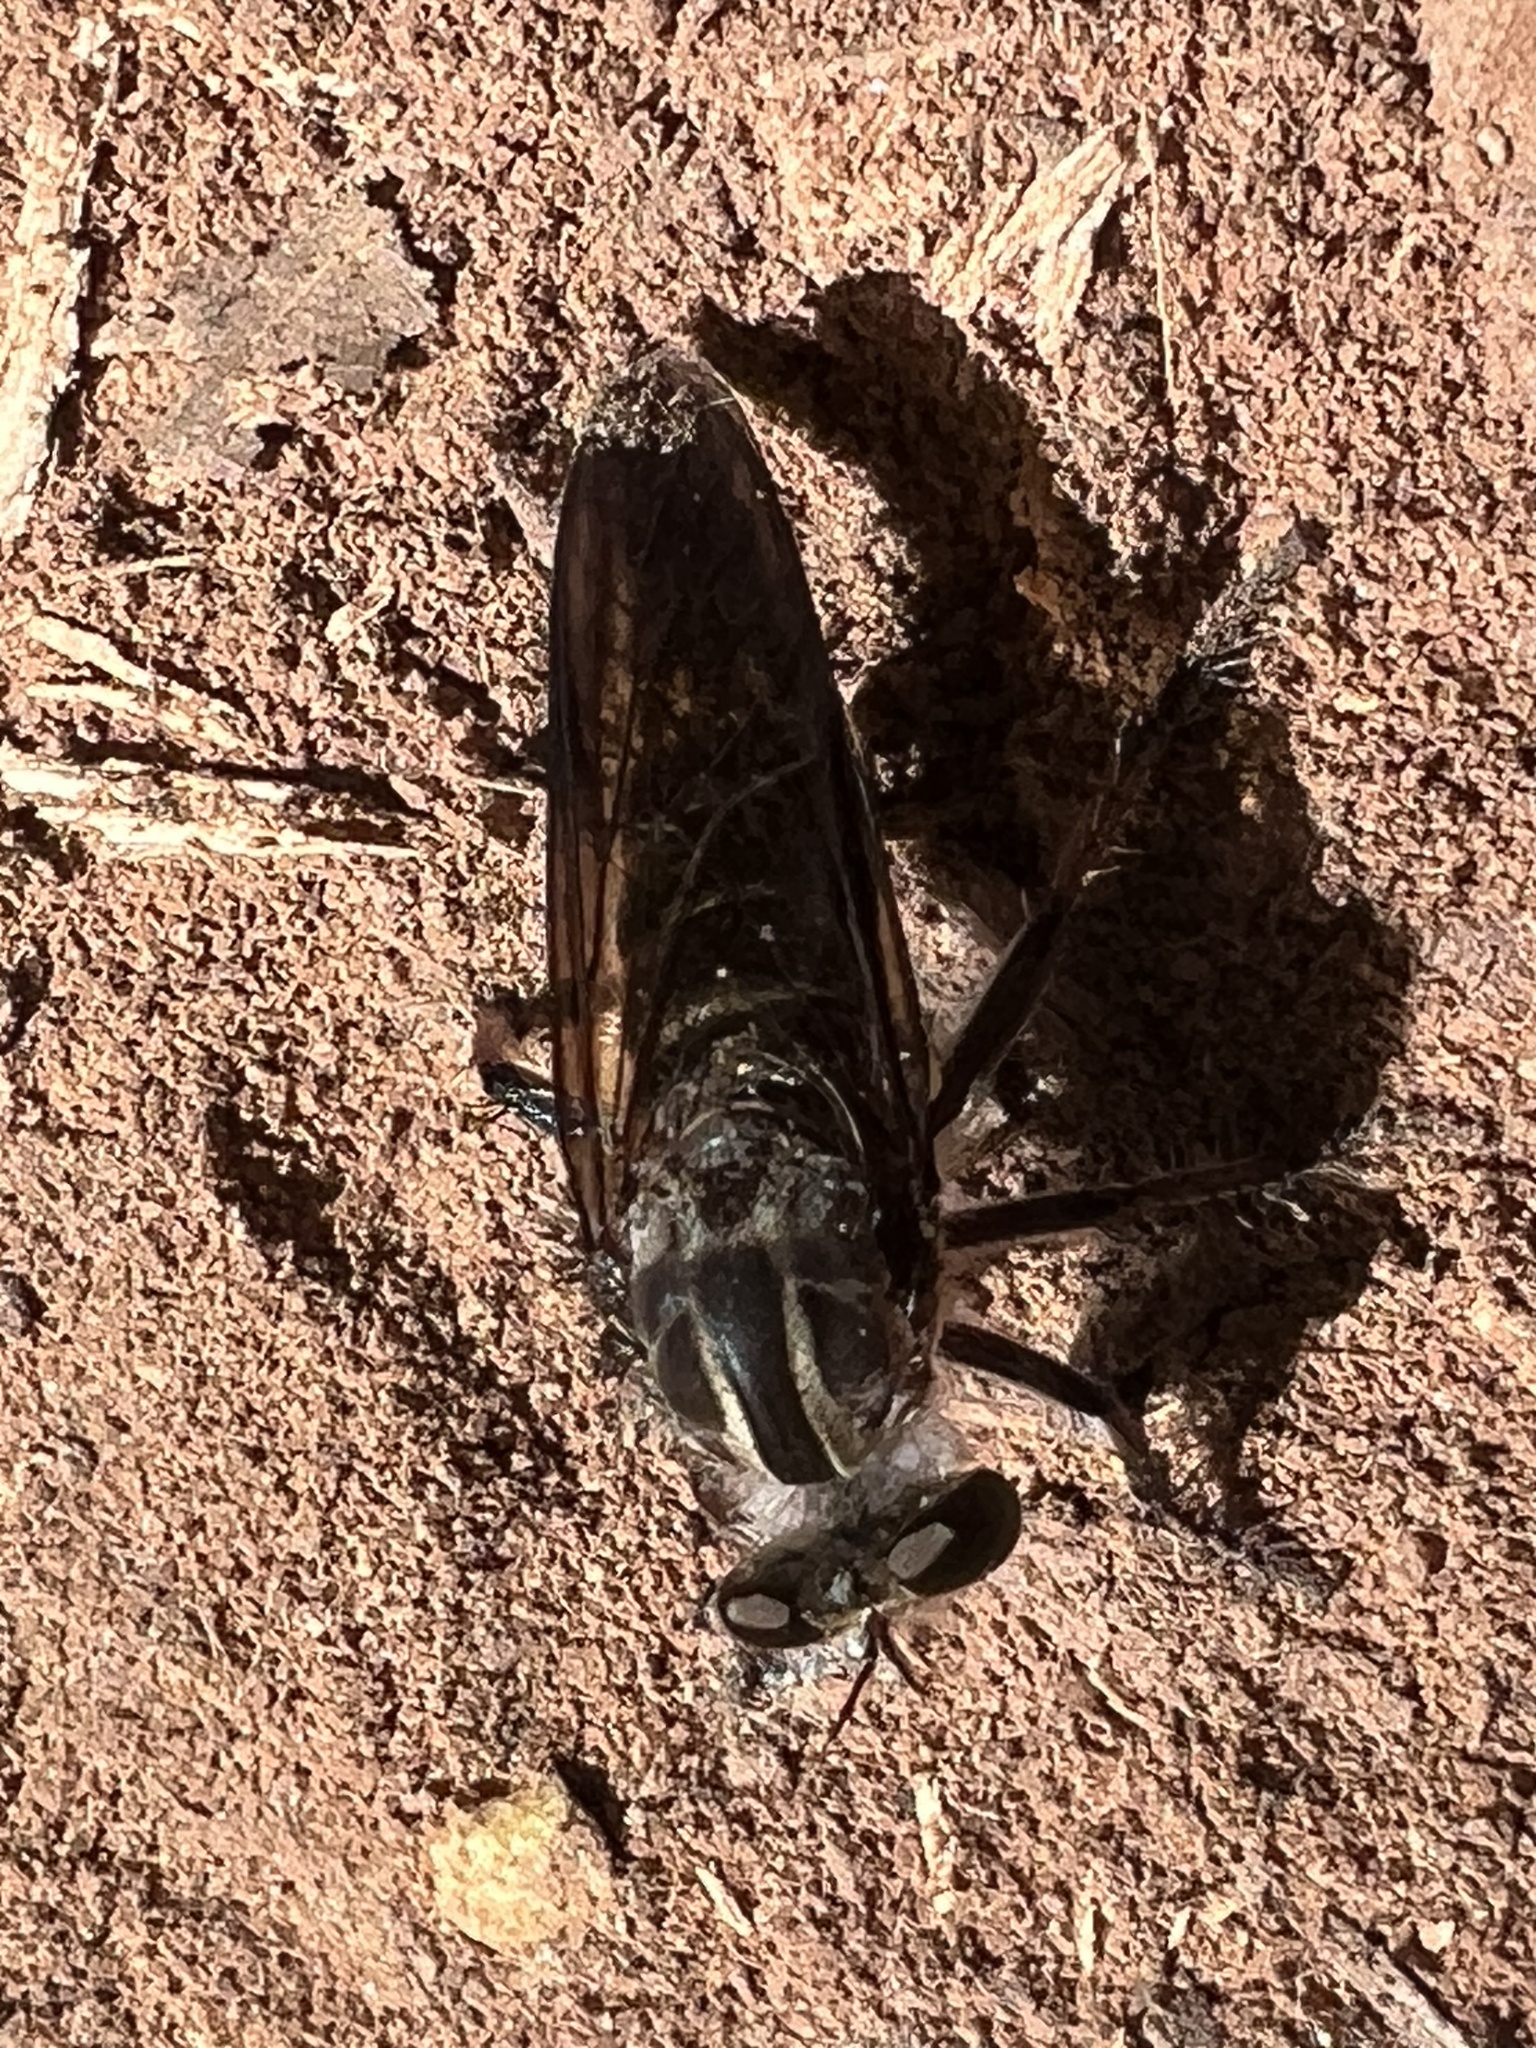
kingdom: Animalia
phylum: Arthropoda
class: Insecta
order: Diptera
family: Asilidae
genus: Heteropogon
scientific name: Heteropogon macerinus
